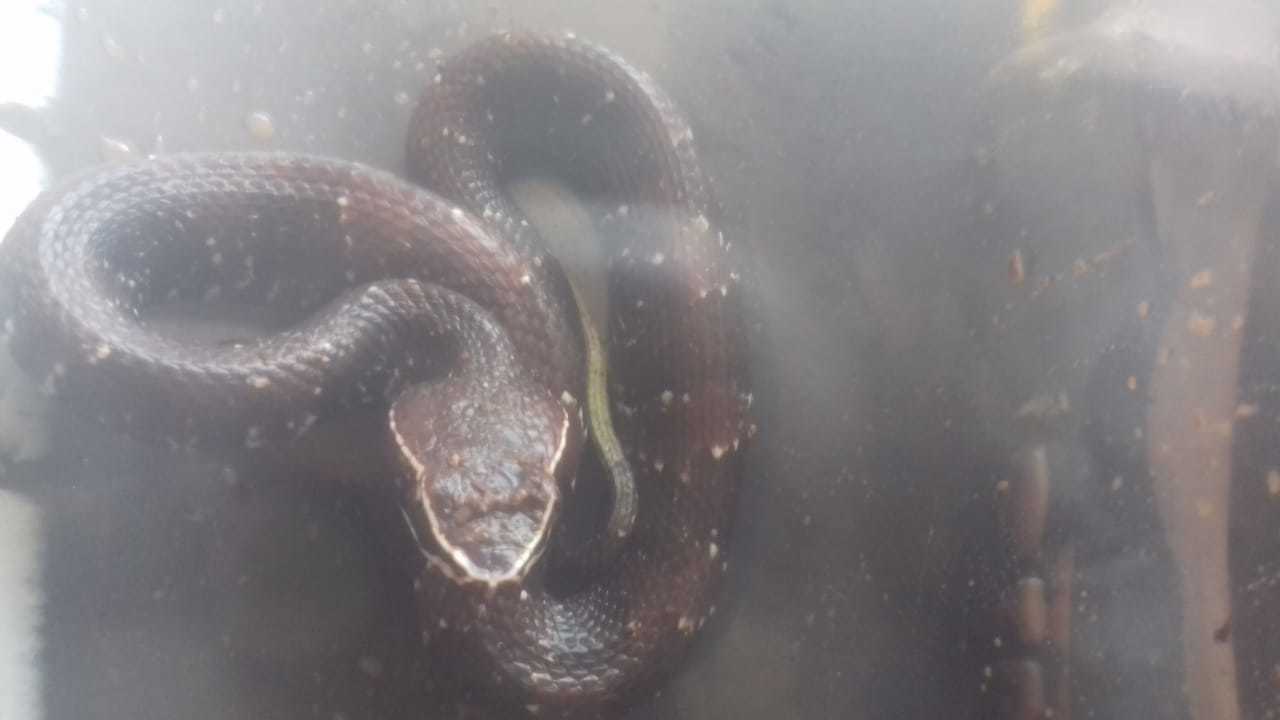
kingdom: Animalia
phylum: Chordata
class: Squamata
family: Viperidae
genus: Agkistrodon
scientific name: Agkistrodon bilineatus
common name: Mexican moccasin
